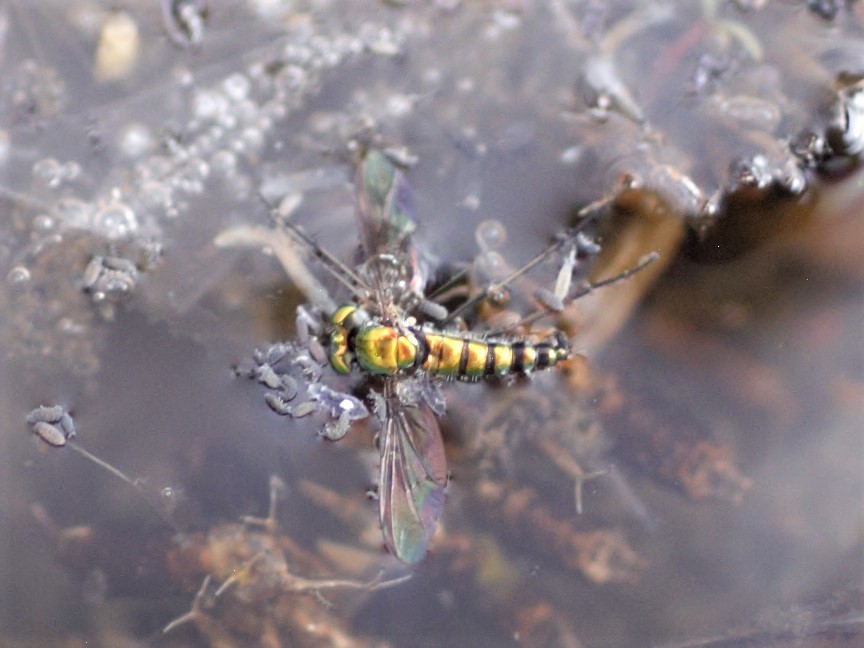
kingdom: Animalia
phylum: Arthropoda
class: Insecta
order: Diptera
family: Dolichopodidae
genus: Condylostylus
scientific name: Condylostylus
